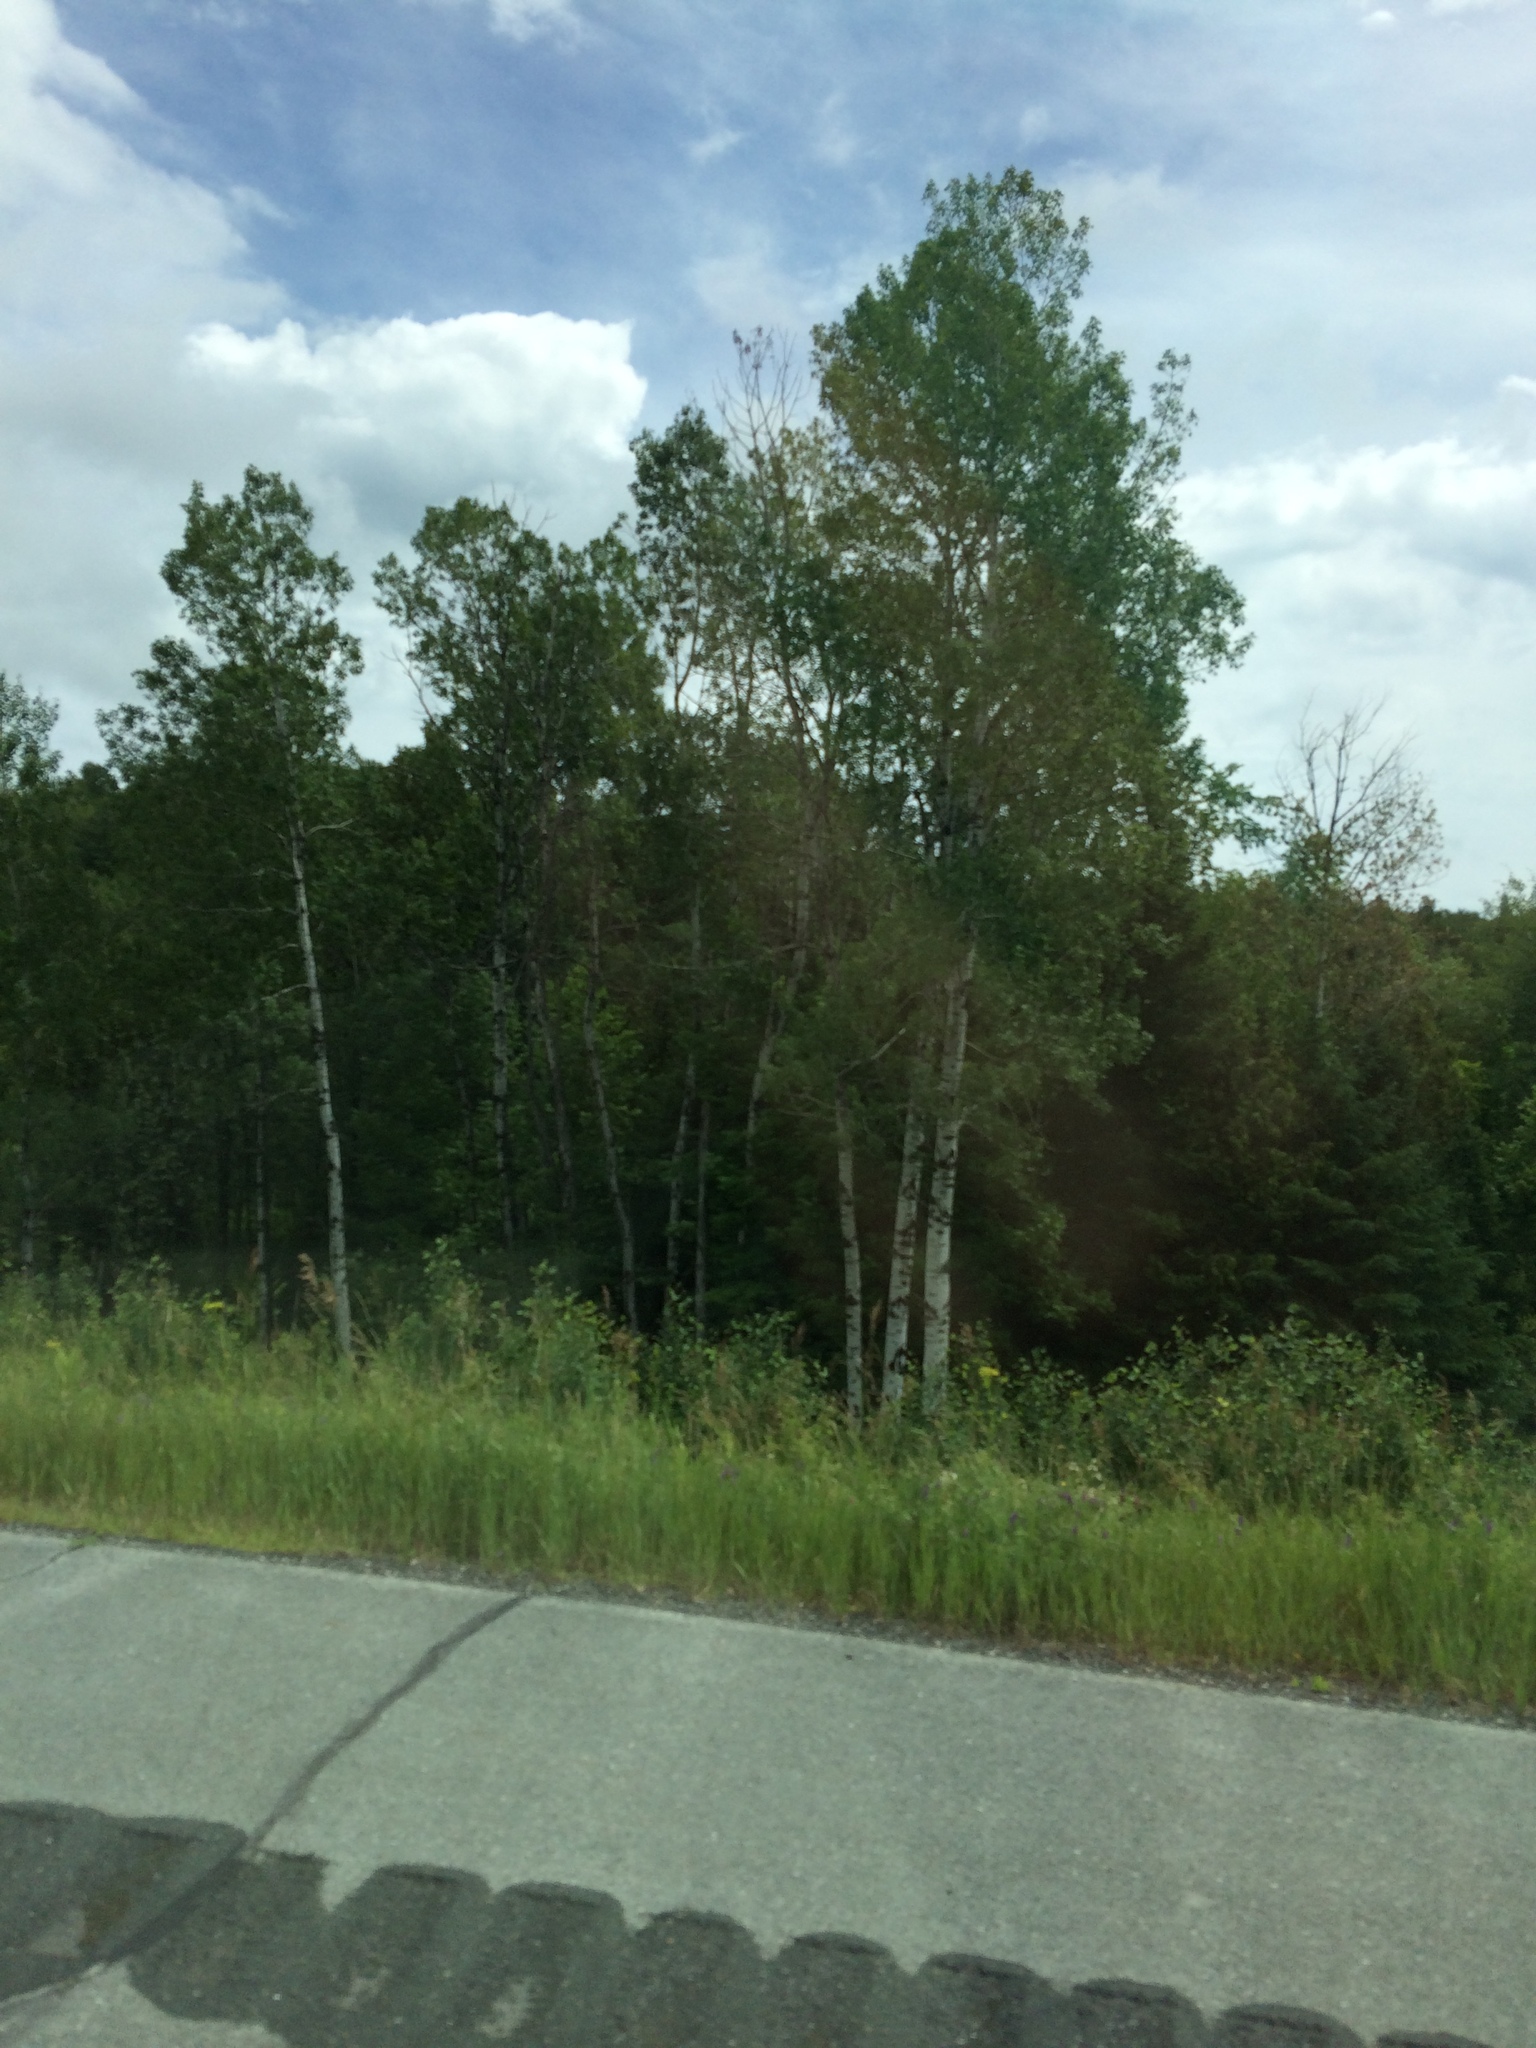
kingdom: Plantae
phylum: Tracheophyta
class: Magnoliopsida
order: Malpighiales
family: Salicaceae
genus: Populus
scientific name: Populus tremuloides
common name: Quaking aspen
